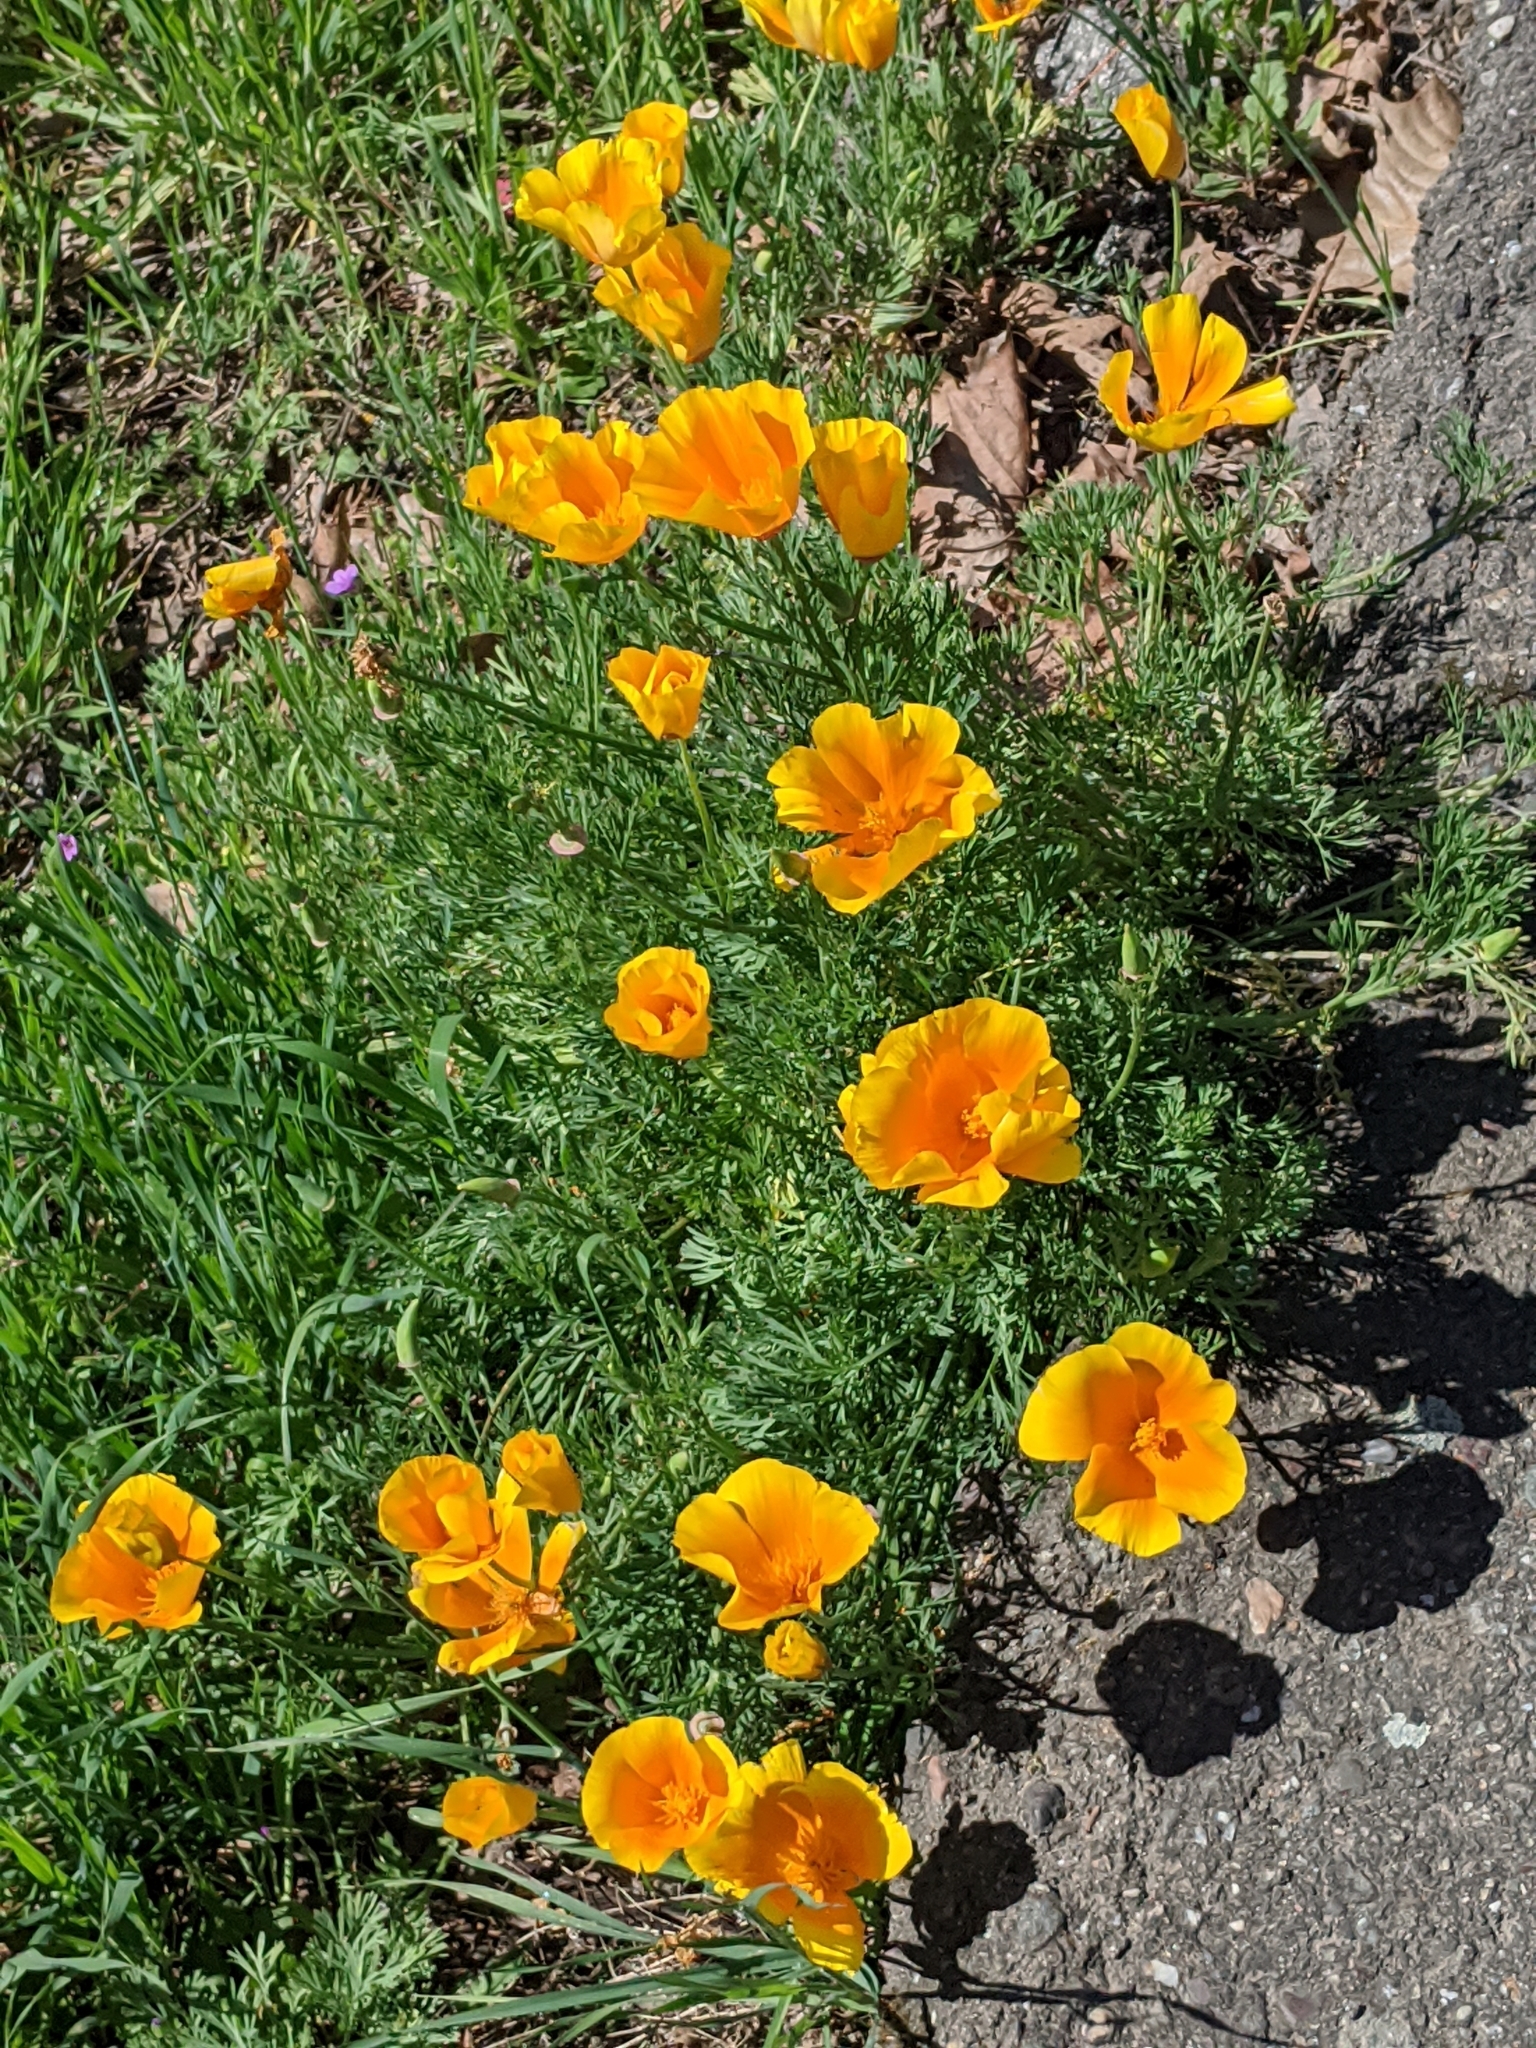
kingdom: Plantae
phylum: Tracheophyta
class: Magnoliopsida
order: Ranunculales
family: Papaveraceae
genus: Eschscholzia
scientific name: Eschscholzia californica
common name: California poppy
